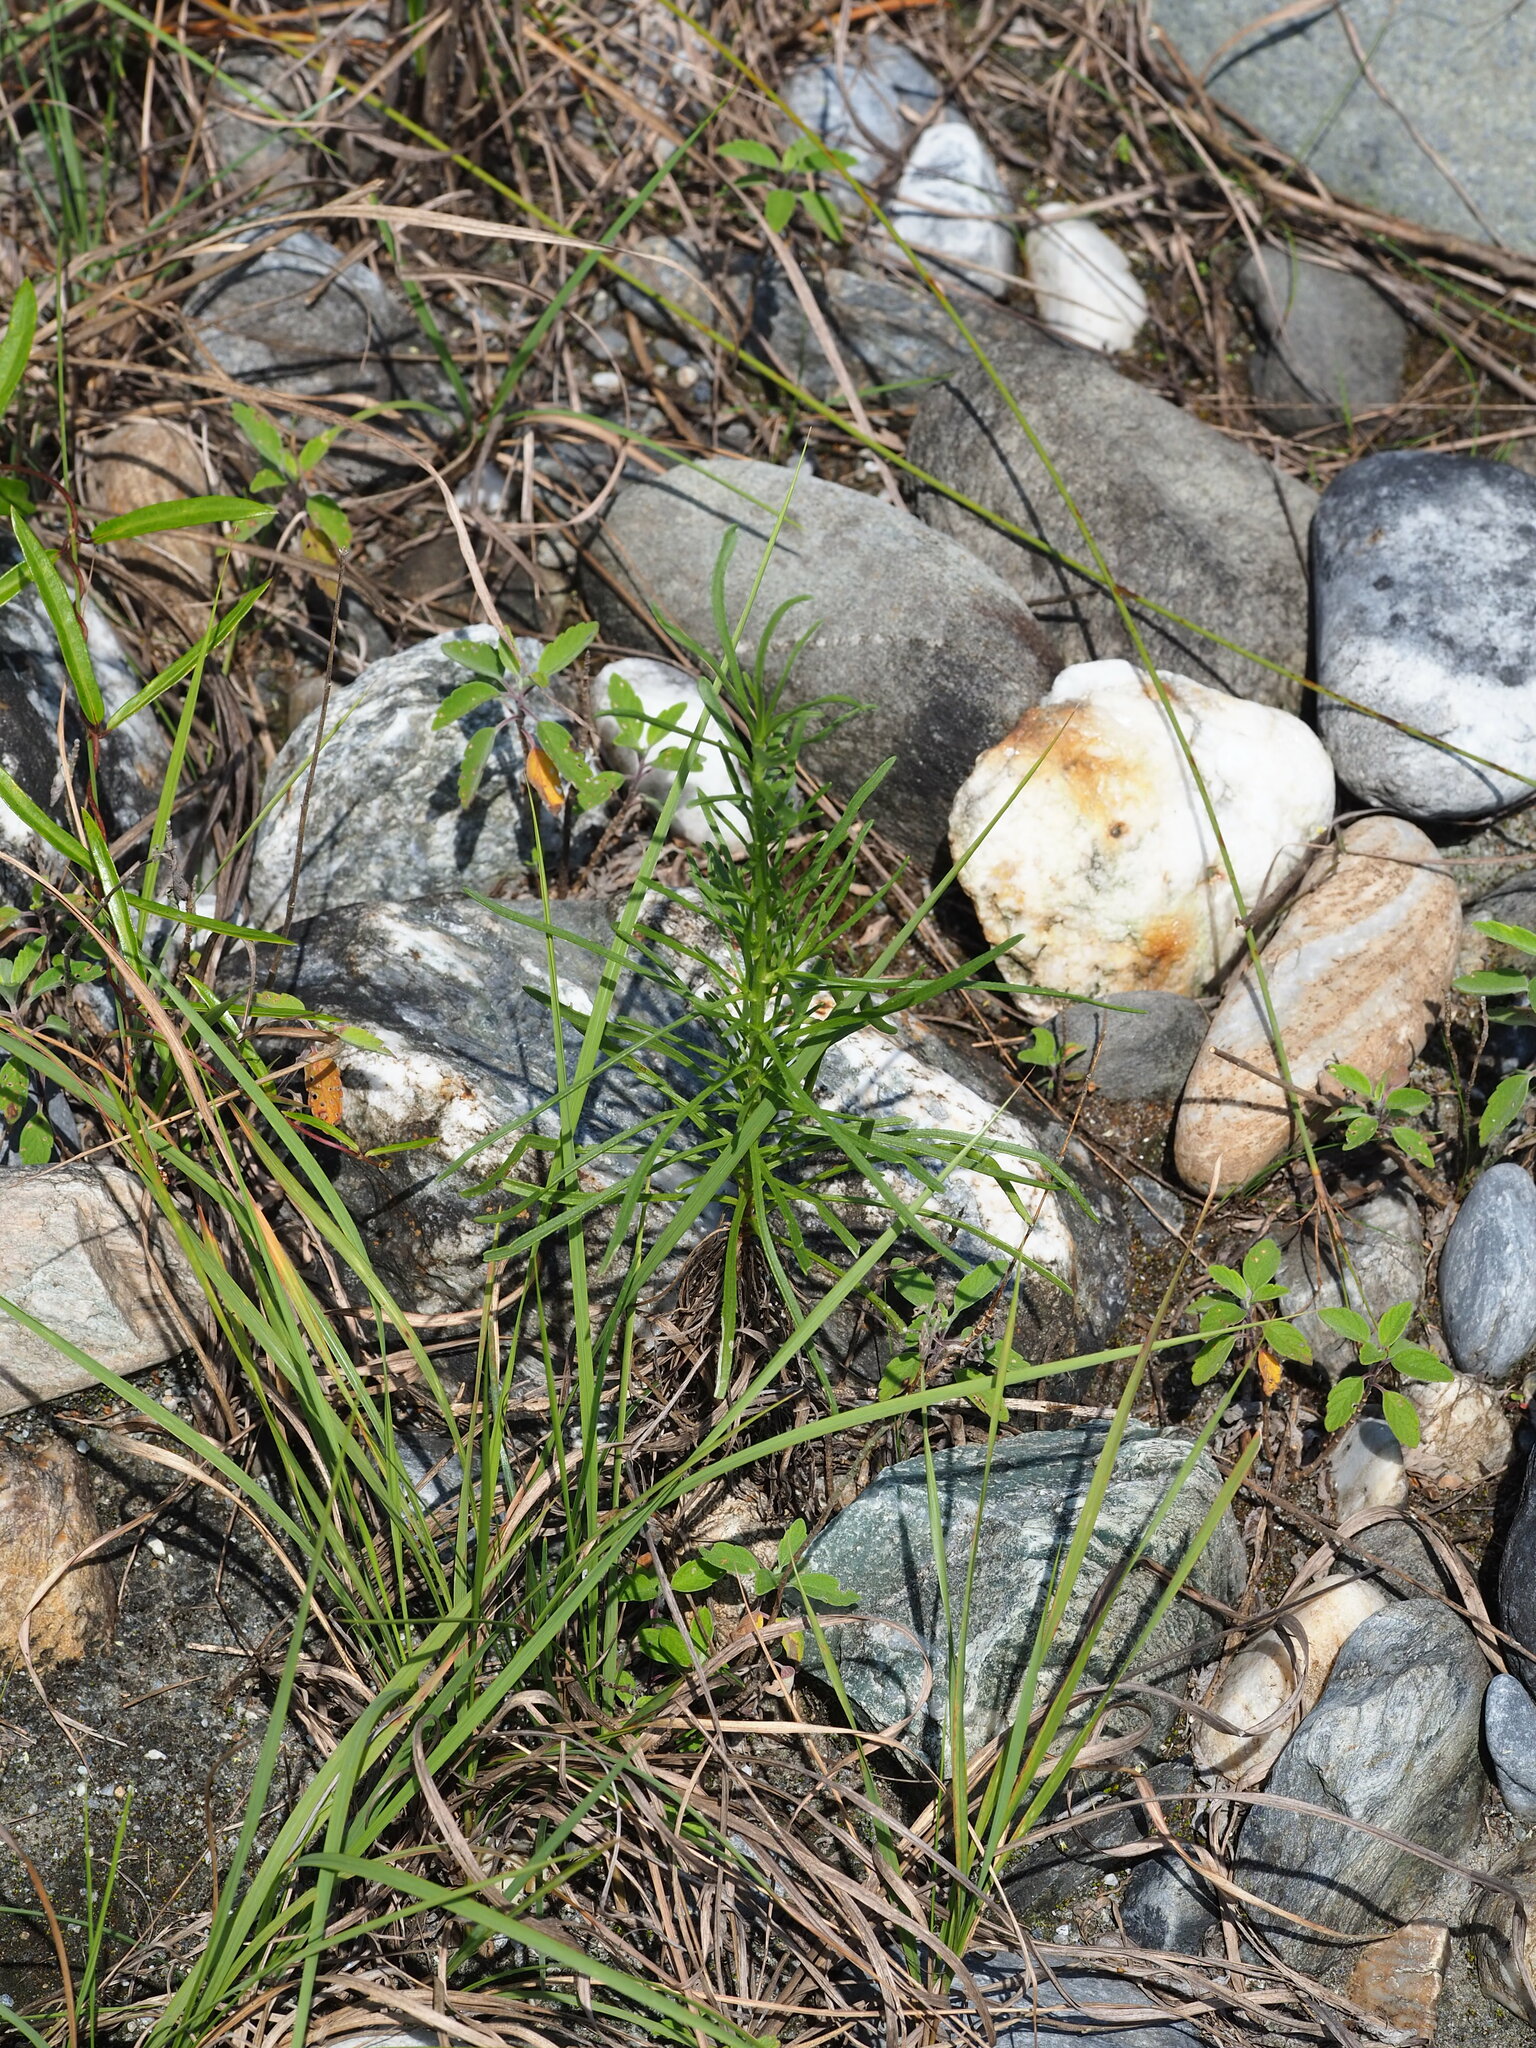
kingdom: Plantae
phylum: Tracheophyta
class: Magnoliopsida
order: Asterales
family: Asteraceae
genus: Heteropappus
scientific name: Heteropappus altaicus
